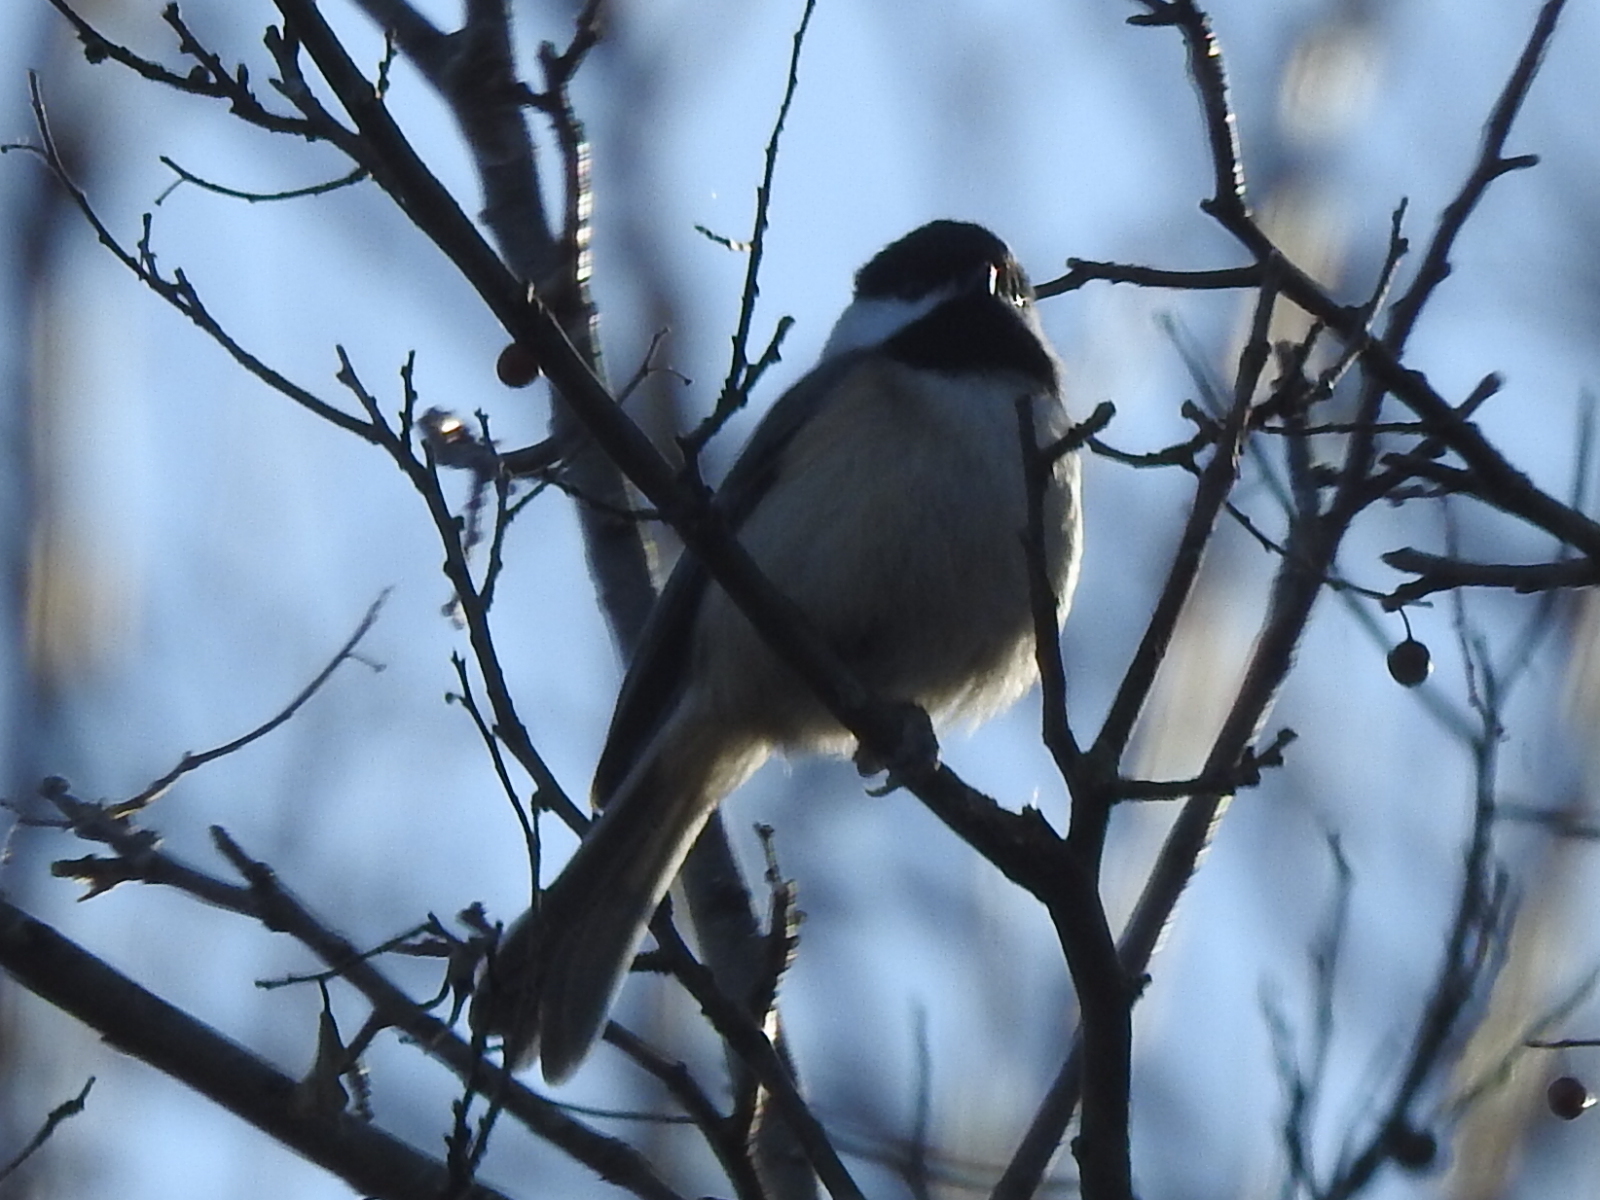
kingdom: Animalia
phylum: Chordata
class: Aves
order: Passeriformes
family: Paridae
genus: Poecile
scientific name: Poecile carolinensis
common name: Carolina chickadee
